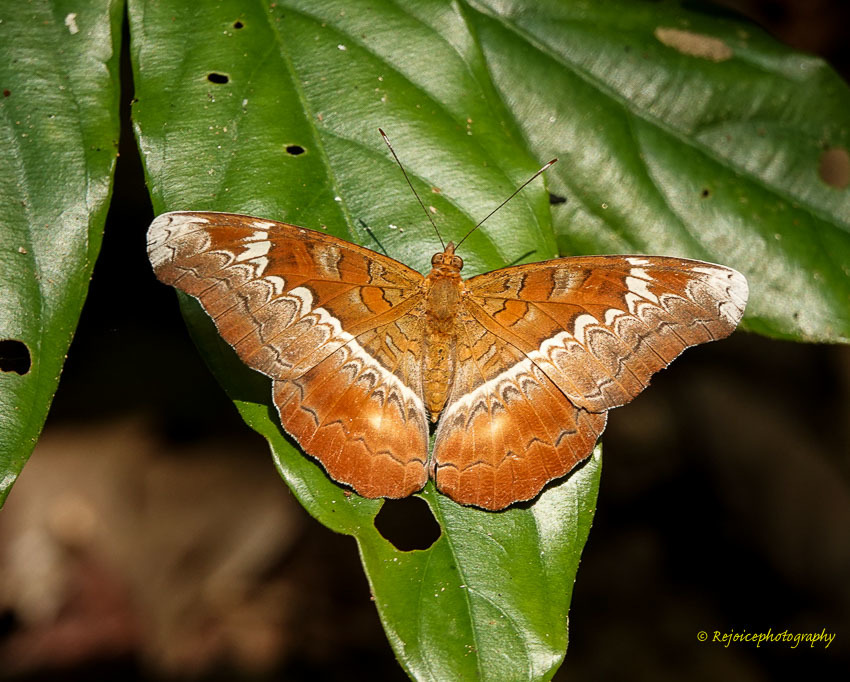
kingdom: Animalia
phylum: Arthropoda
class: Insecta
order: Lepidoptera
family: Nymphalidae
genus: Lebadea
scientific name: Lebadea martha
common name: Knight
